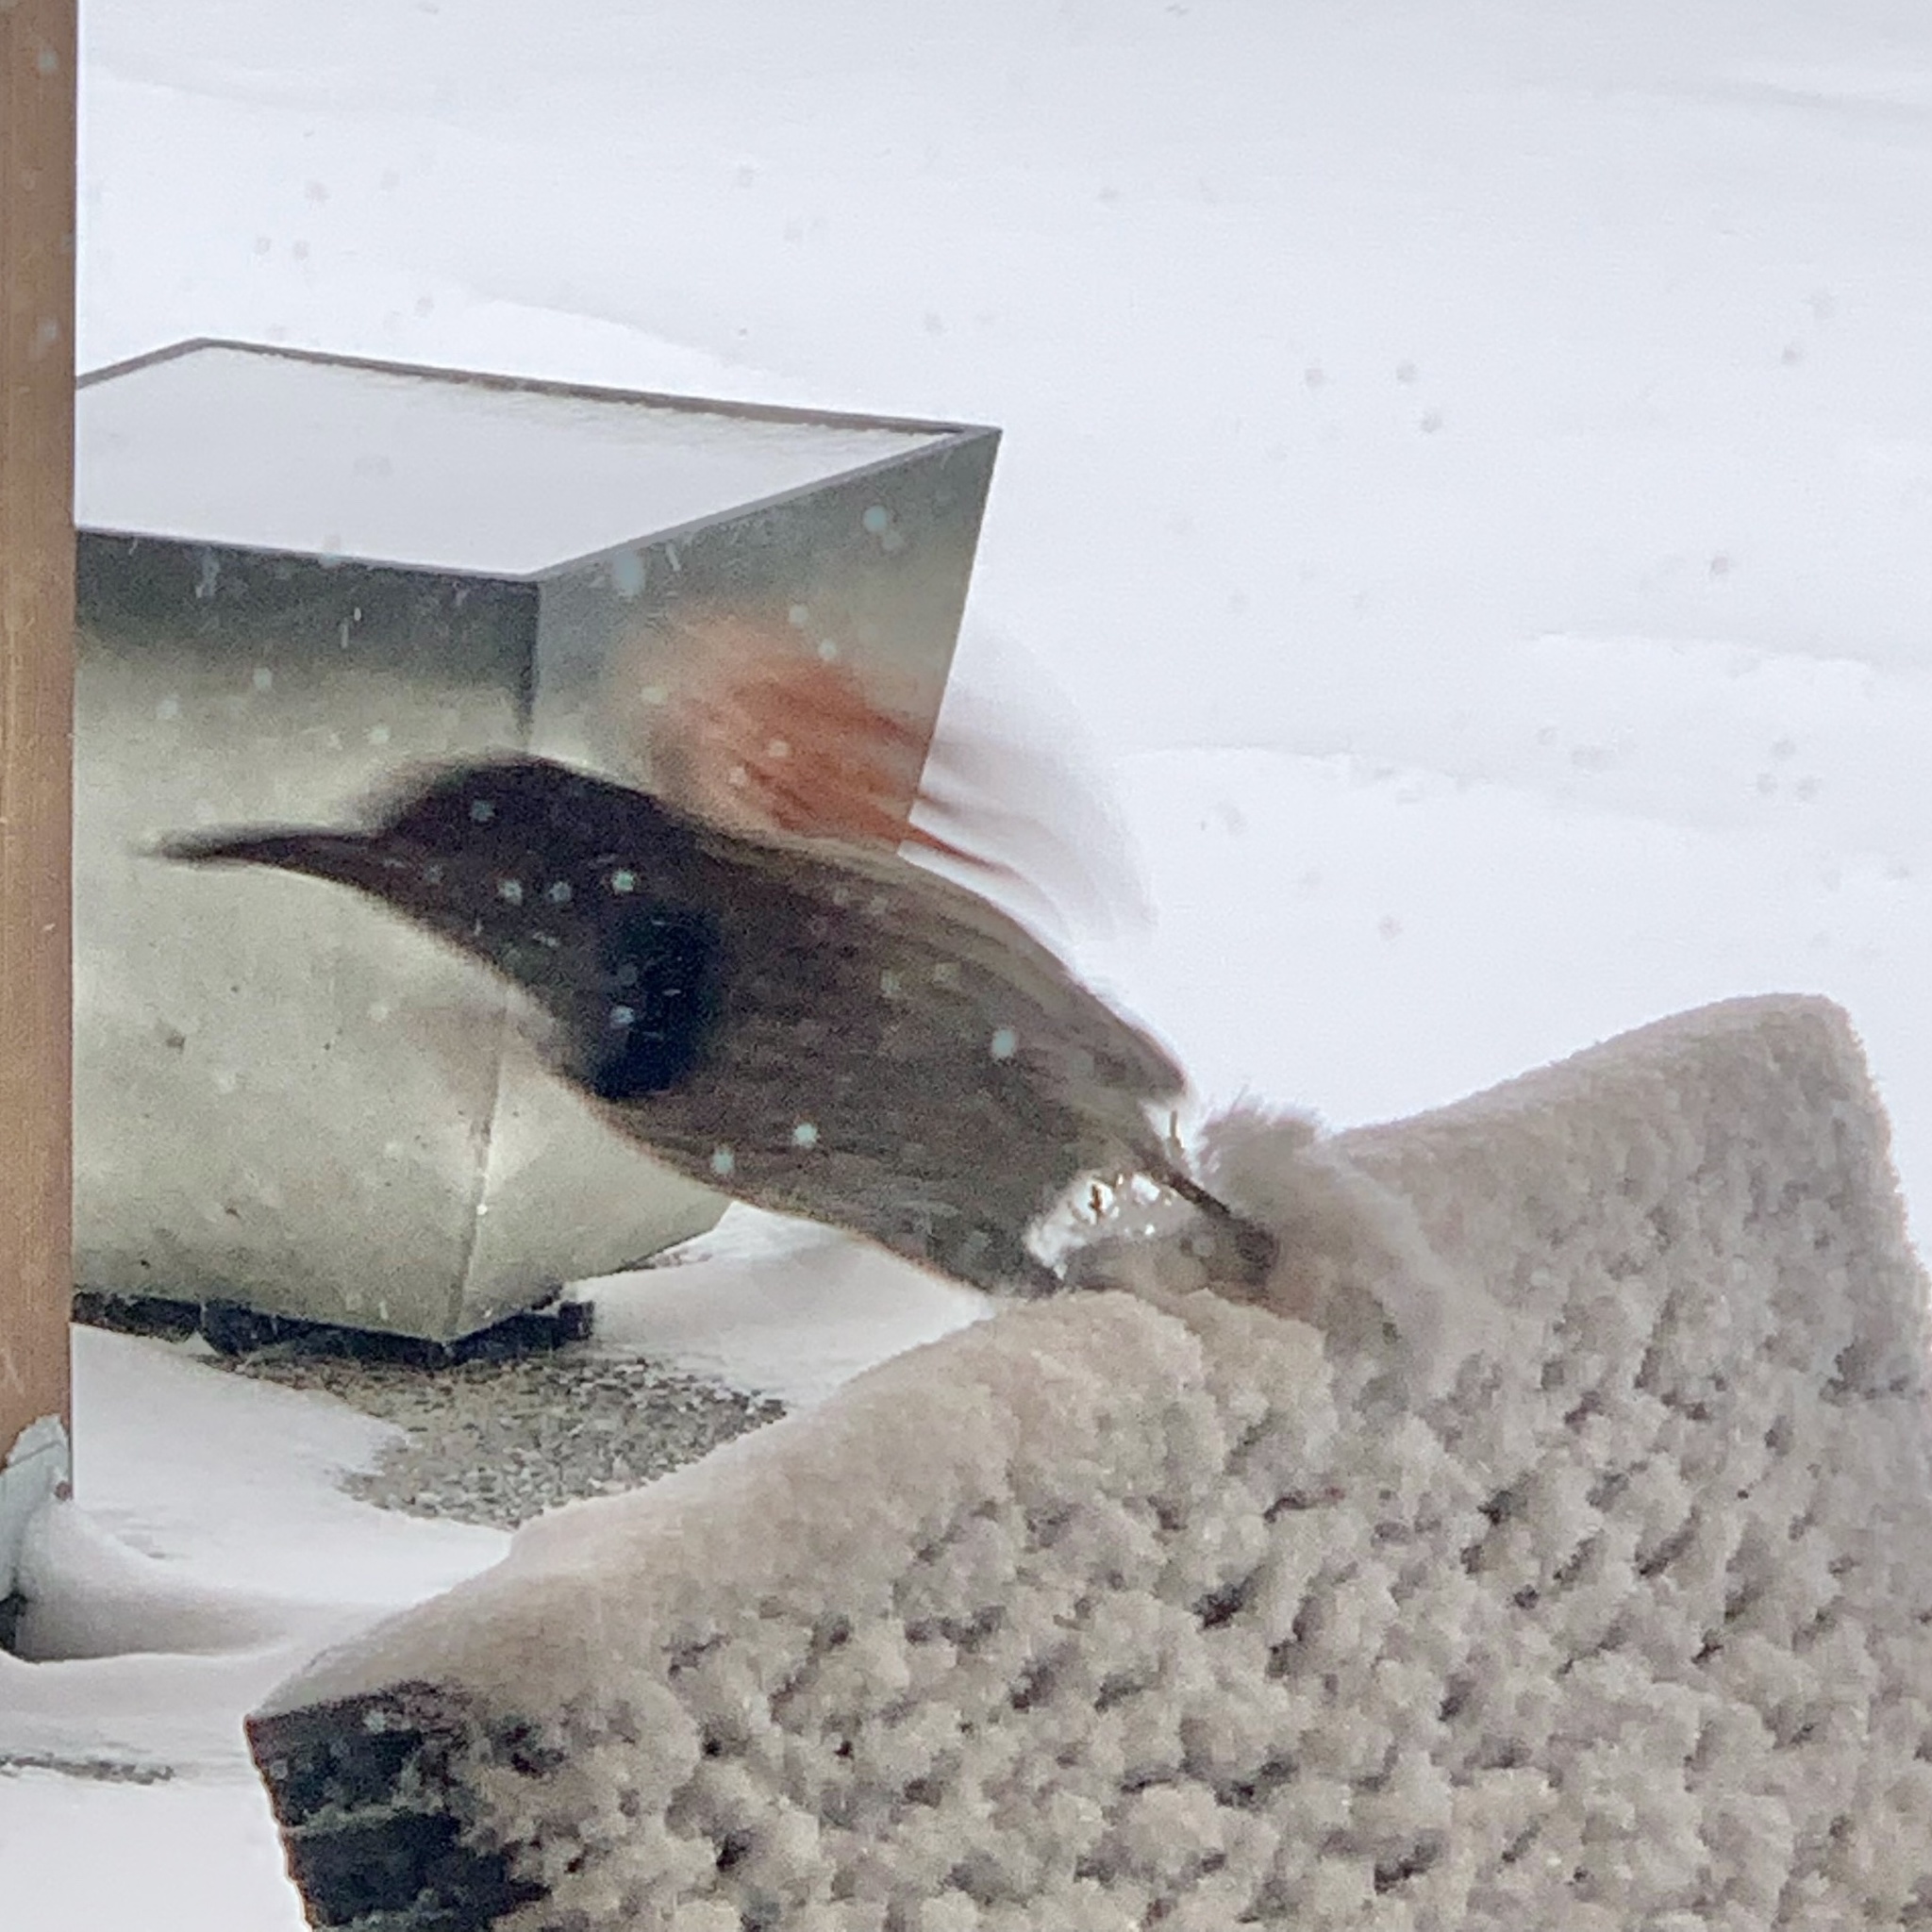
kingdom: Animalia
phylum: Chordata
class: Aves
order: Piciformes
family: Picidae
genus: Colaptes
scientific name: Colaptes auratus
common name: Northern flicker
